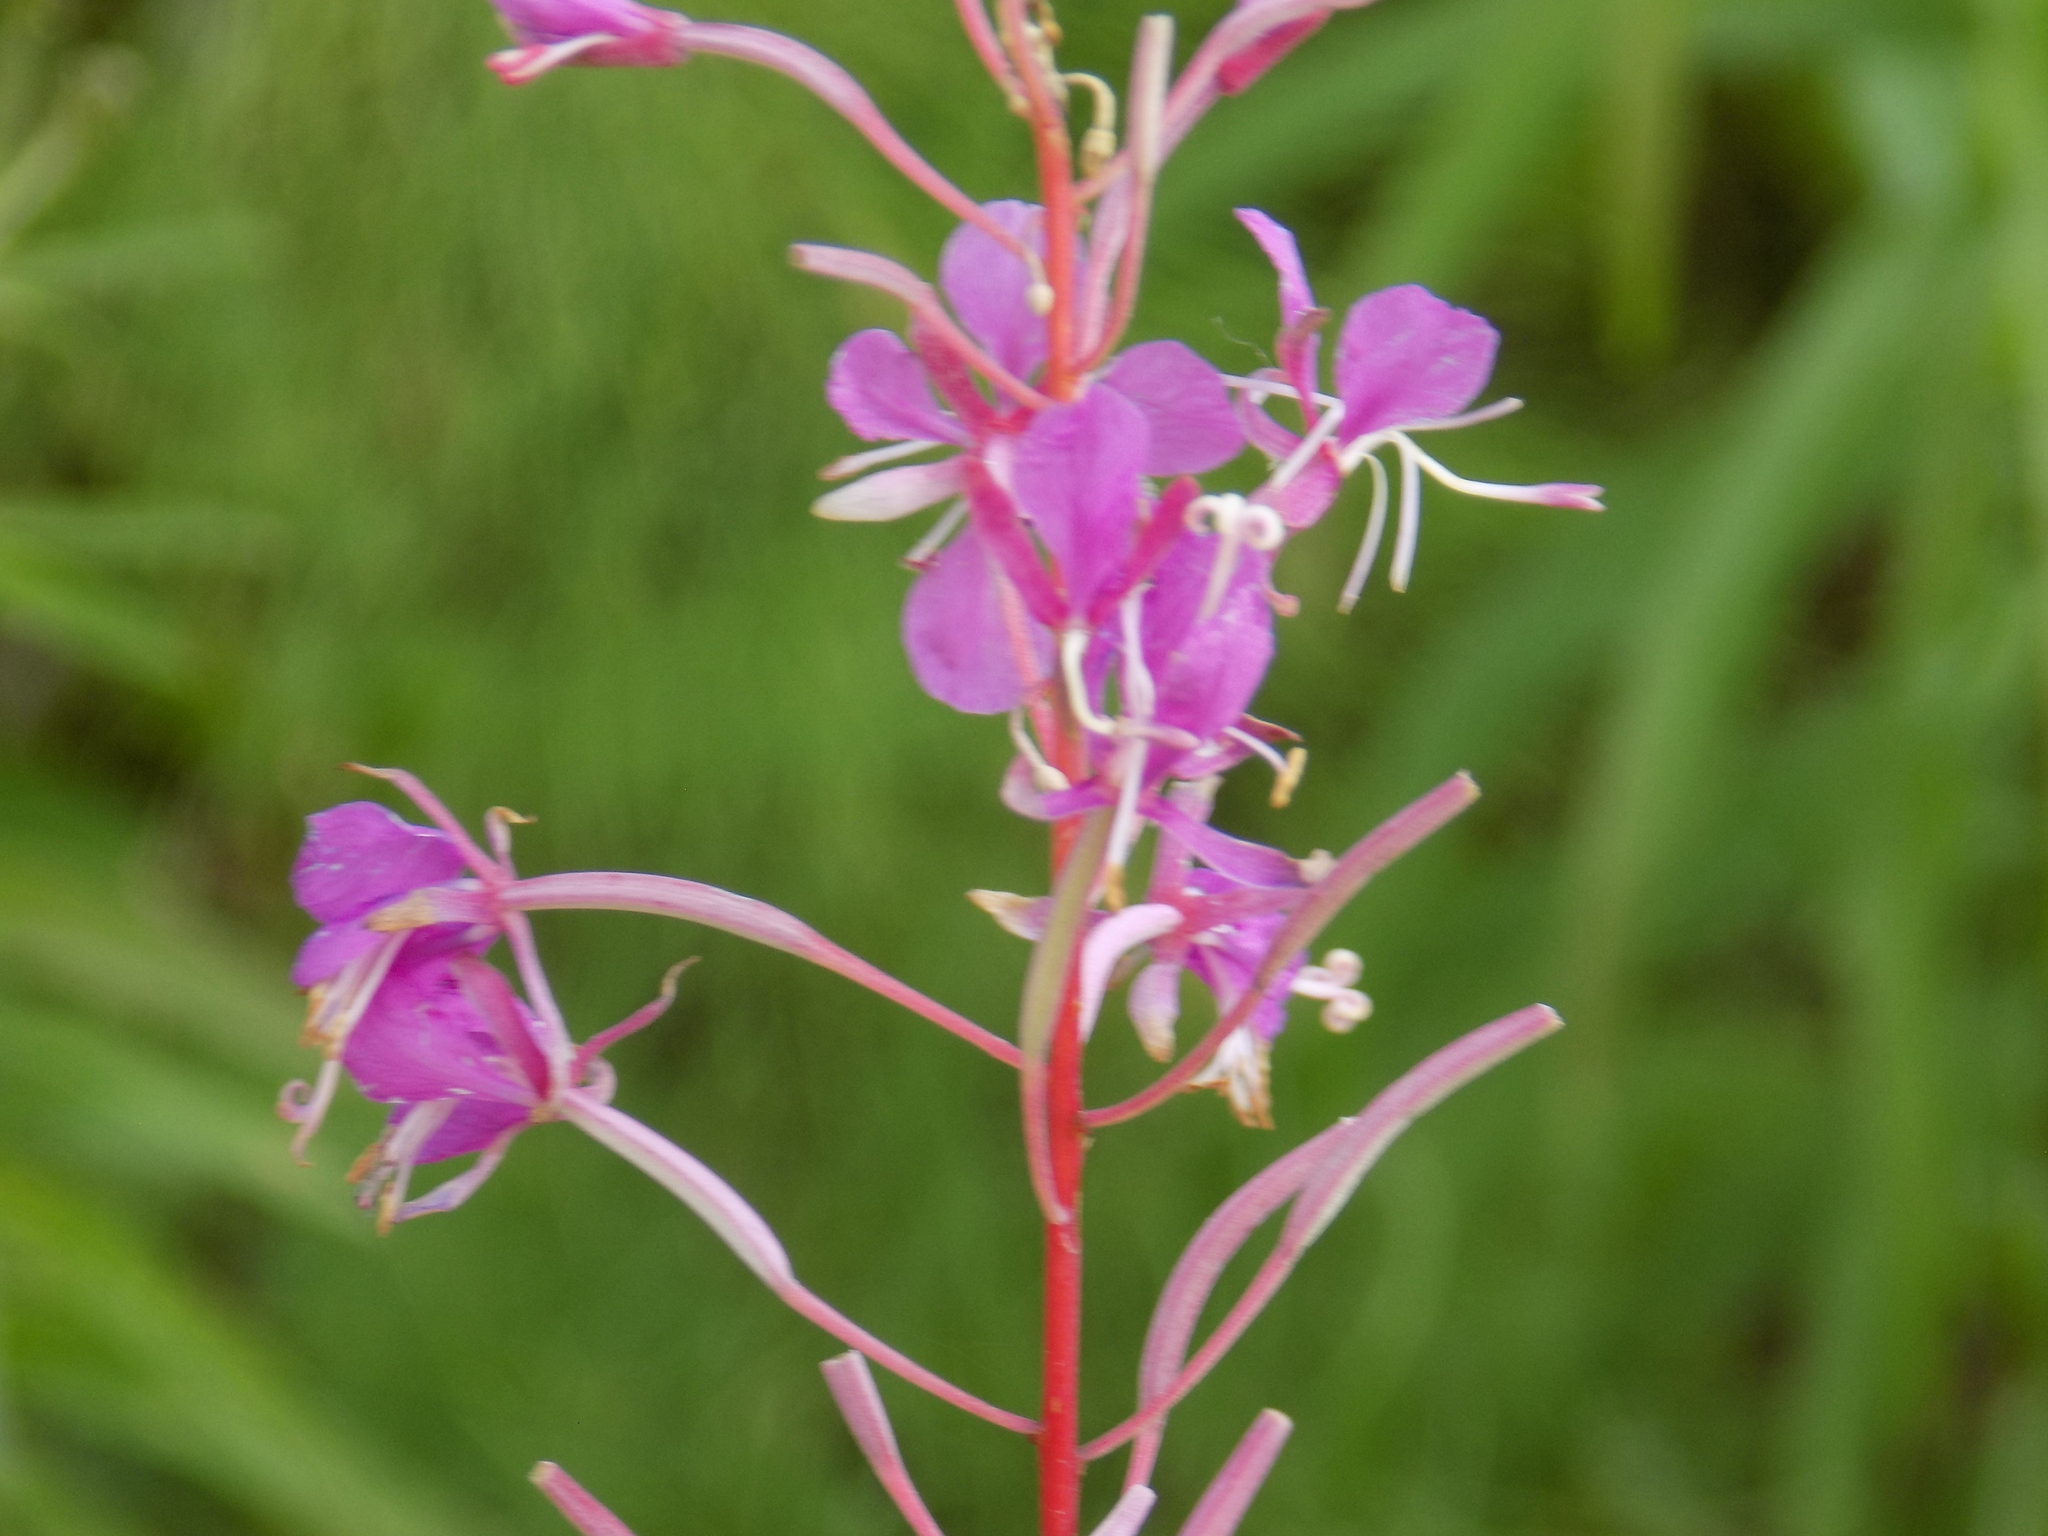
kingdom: Plantae
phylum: Tracheophyta
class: Magnoliopsida
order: Myrtales
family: Onagraceae
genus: Chamaenerion
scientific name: Chamaenerion angustifolium
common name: Fireweed
